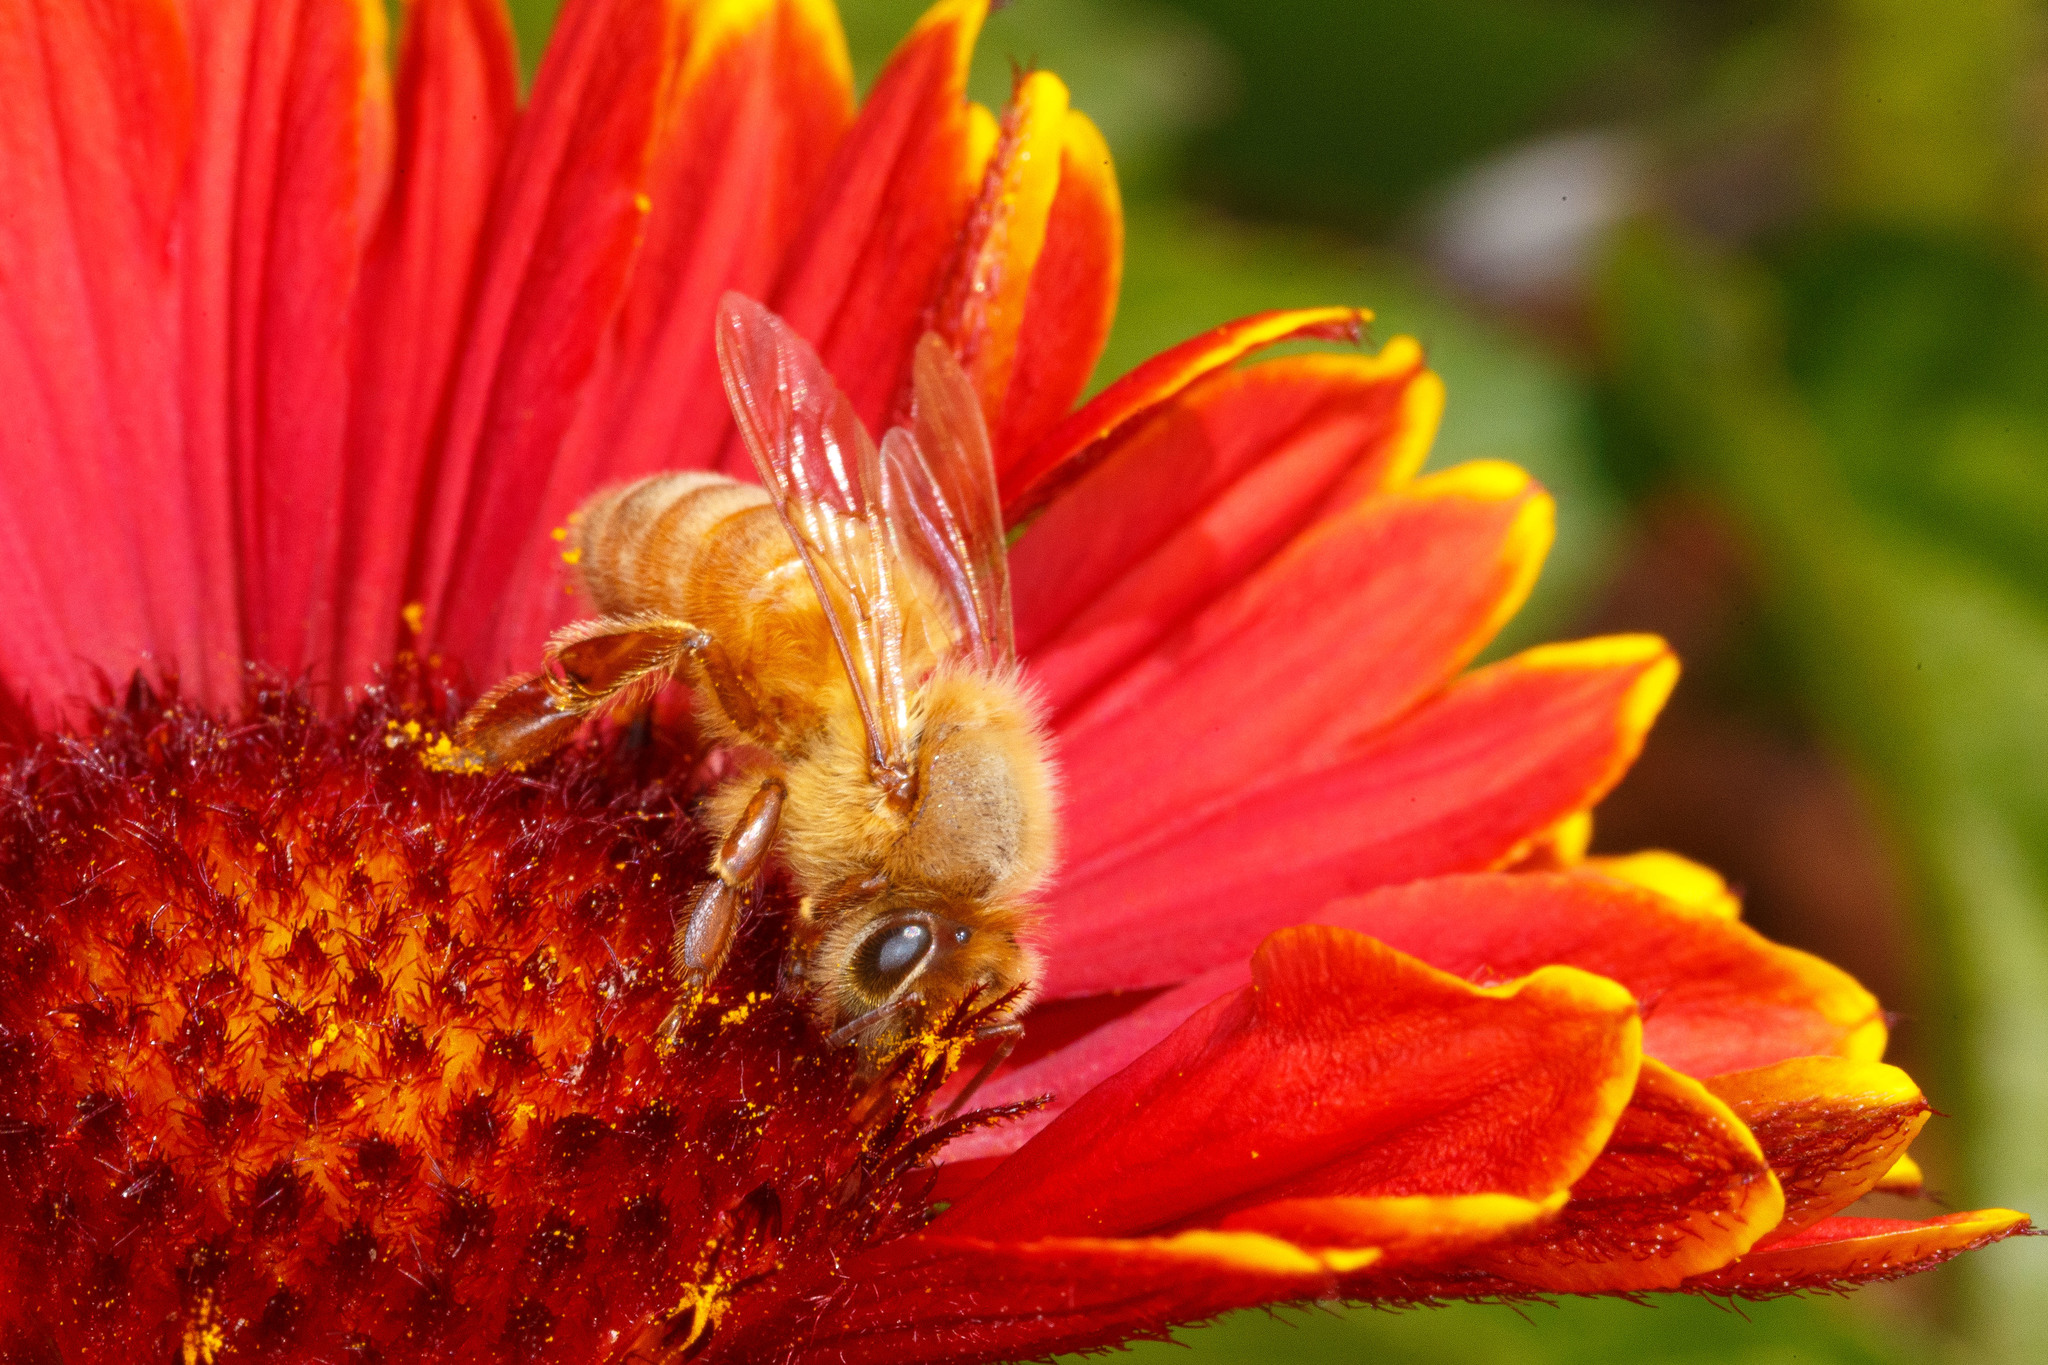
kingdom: Animalia
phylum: Arthropoda
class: Insecta
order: Hymenoptera
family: Apidae
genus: Apis
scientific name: Apis mellifera
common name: Honey bee
